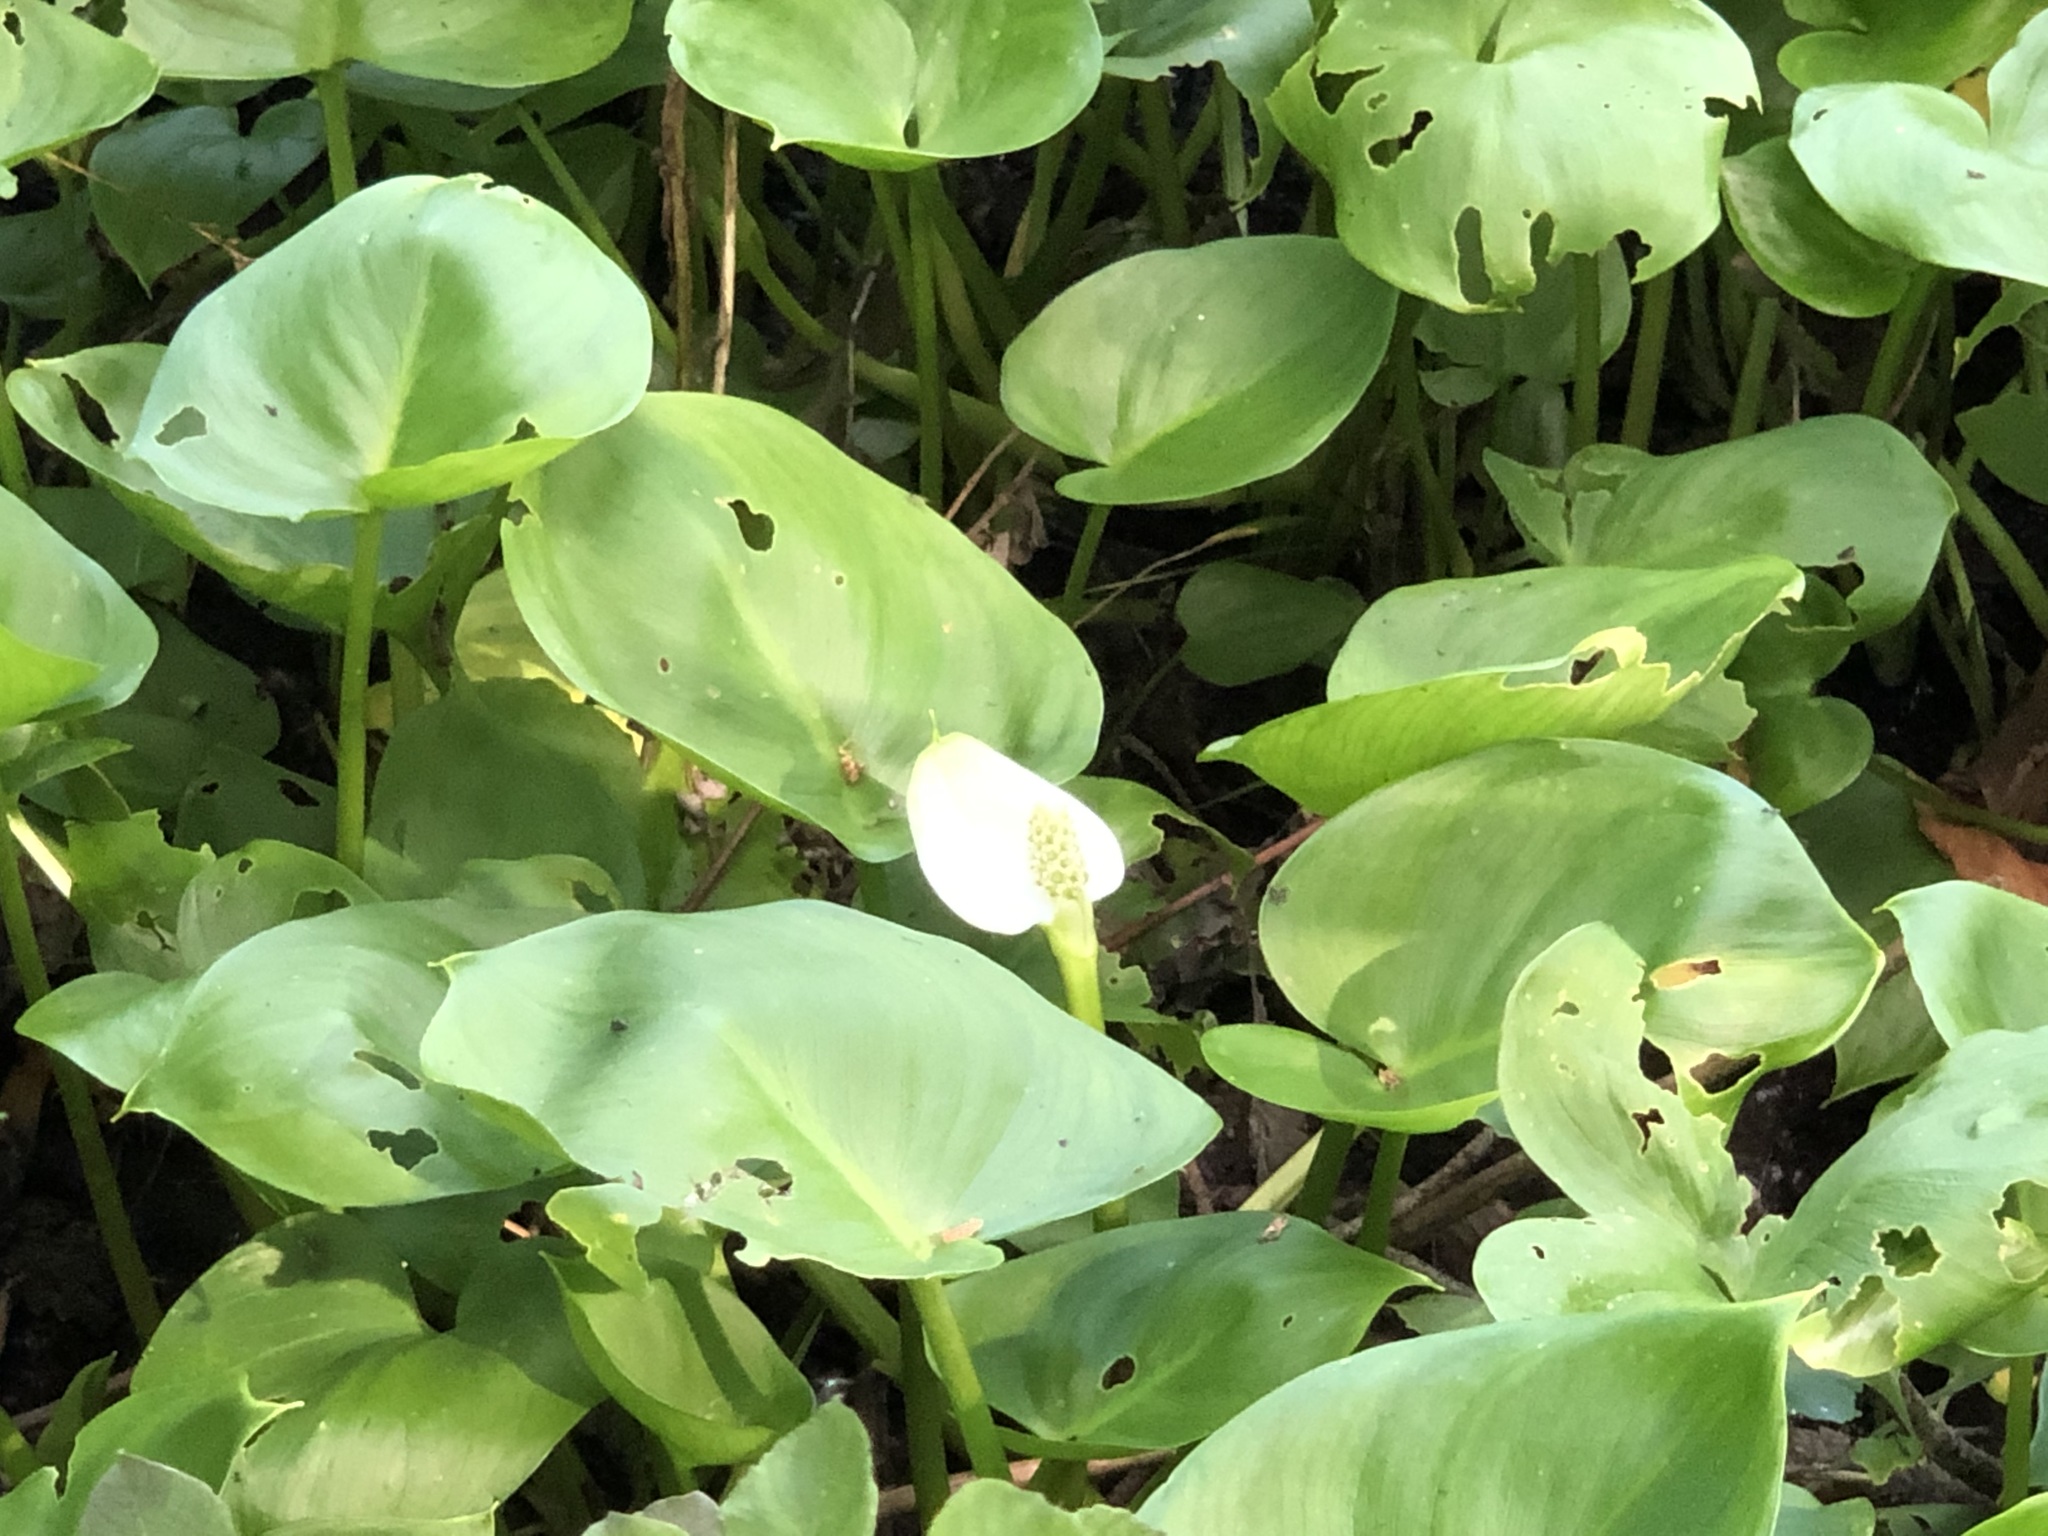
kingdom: Plantae
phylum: Tracheophyta
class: Liliopsida
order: Alismatales
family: Araceae
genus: Calla
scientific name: Calla palustris
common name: Bog arum
